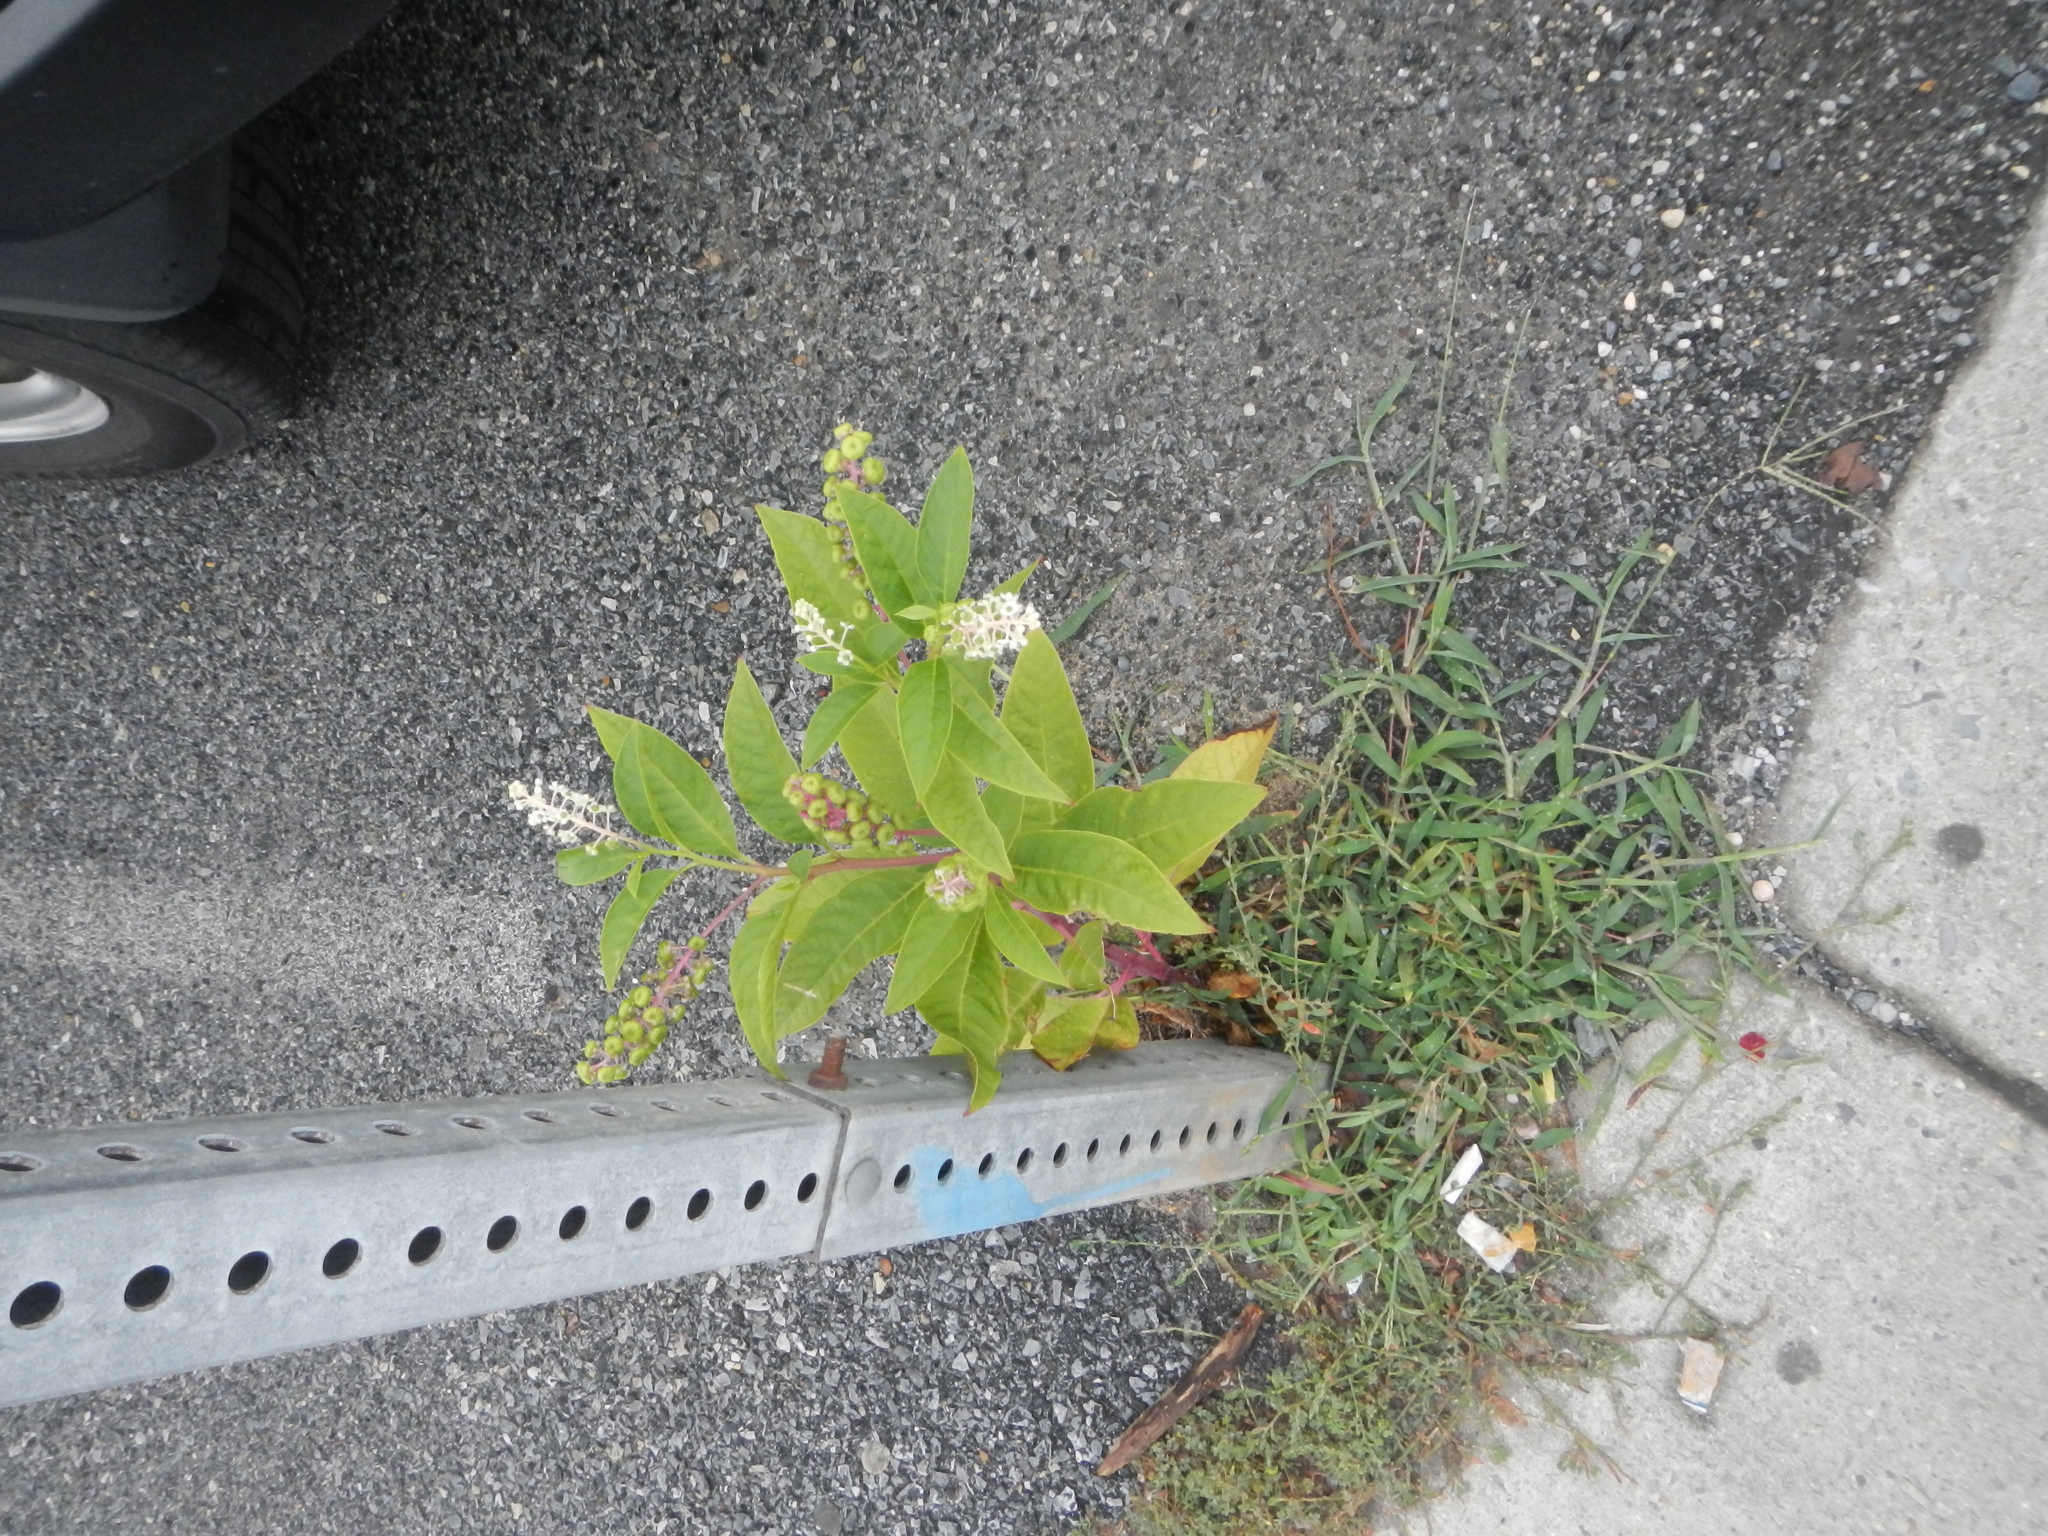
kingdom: Plantae
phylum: Tracheophyta
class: Magnoliopsida
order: Caryophyllales
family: Phytolaccaceae
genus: Phytolacca
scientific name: Phytolacca americana
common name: American pokeweed
